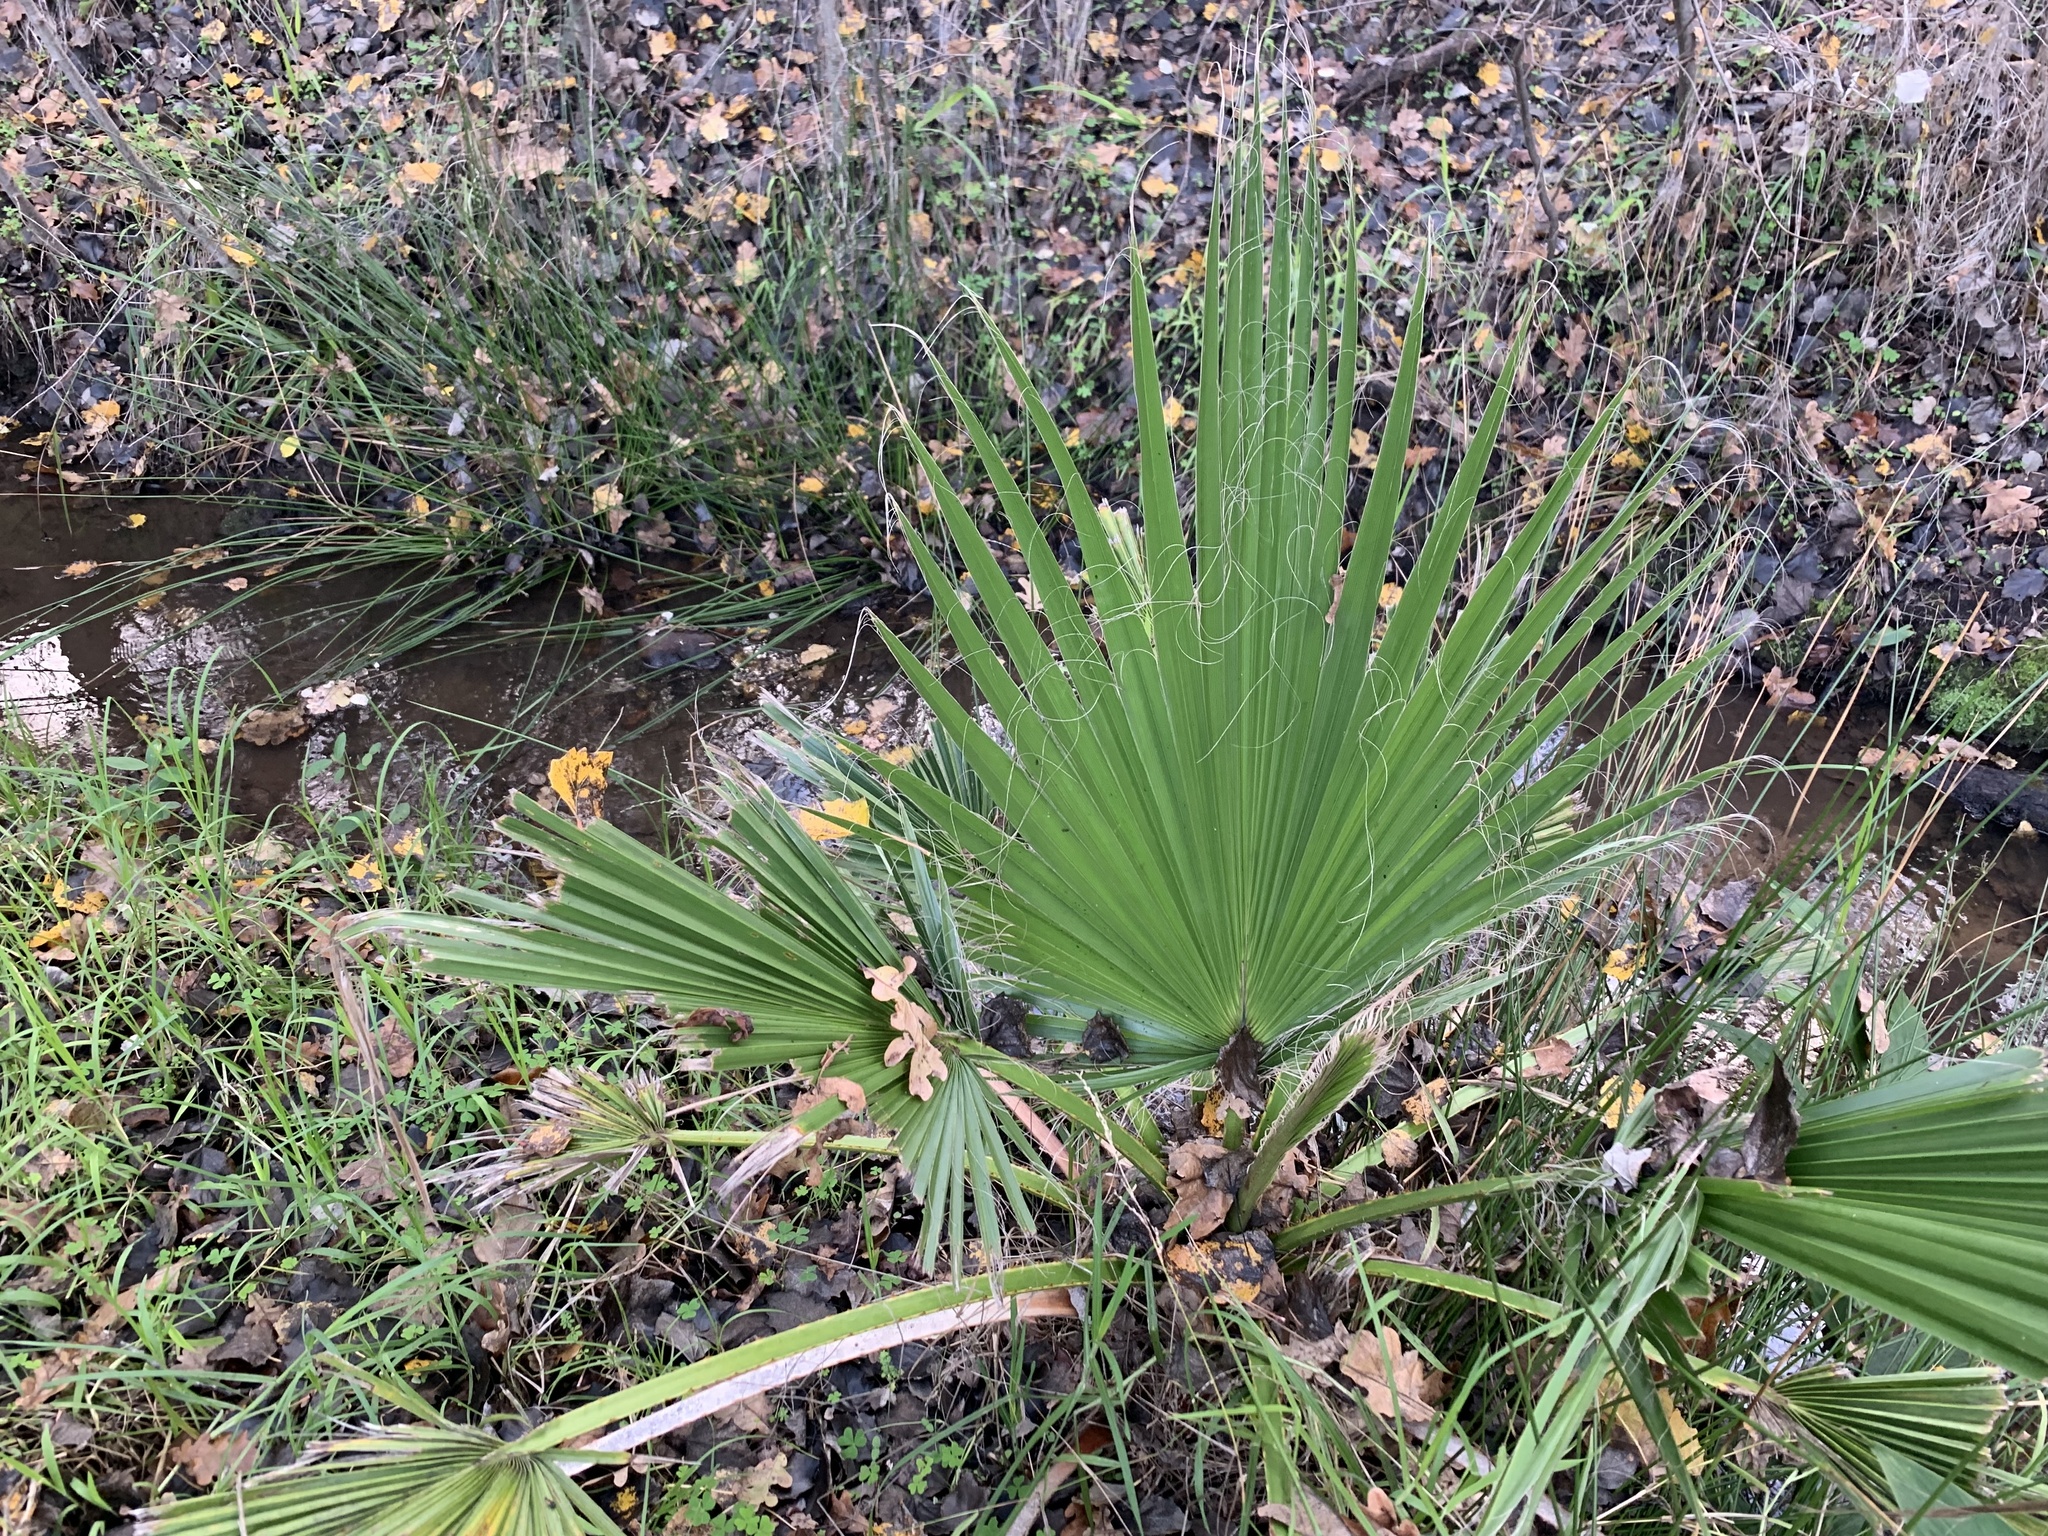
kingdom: Plantae
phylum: Tracheophyta
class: Liliopsida
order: Arecales
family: Arecaceae
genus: Washingtonia
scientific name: Washingtonia robusta
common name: Mexican fan palm
